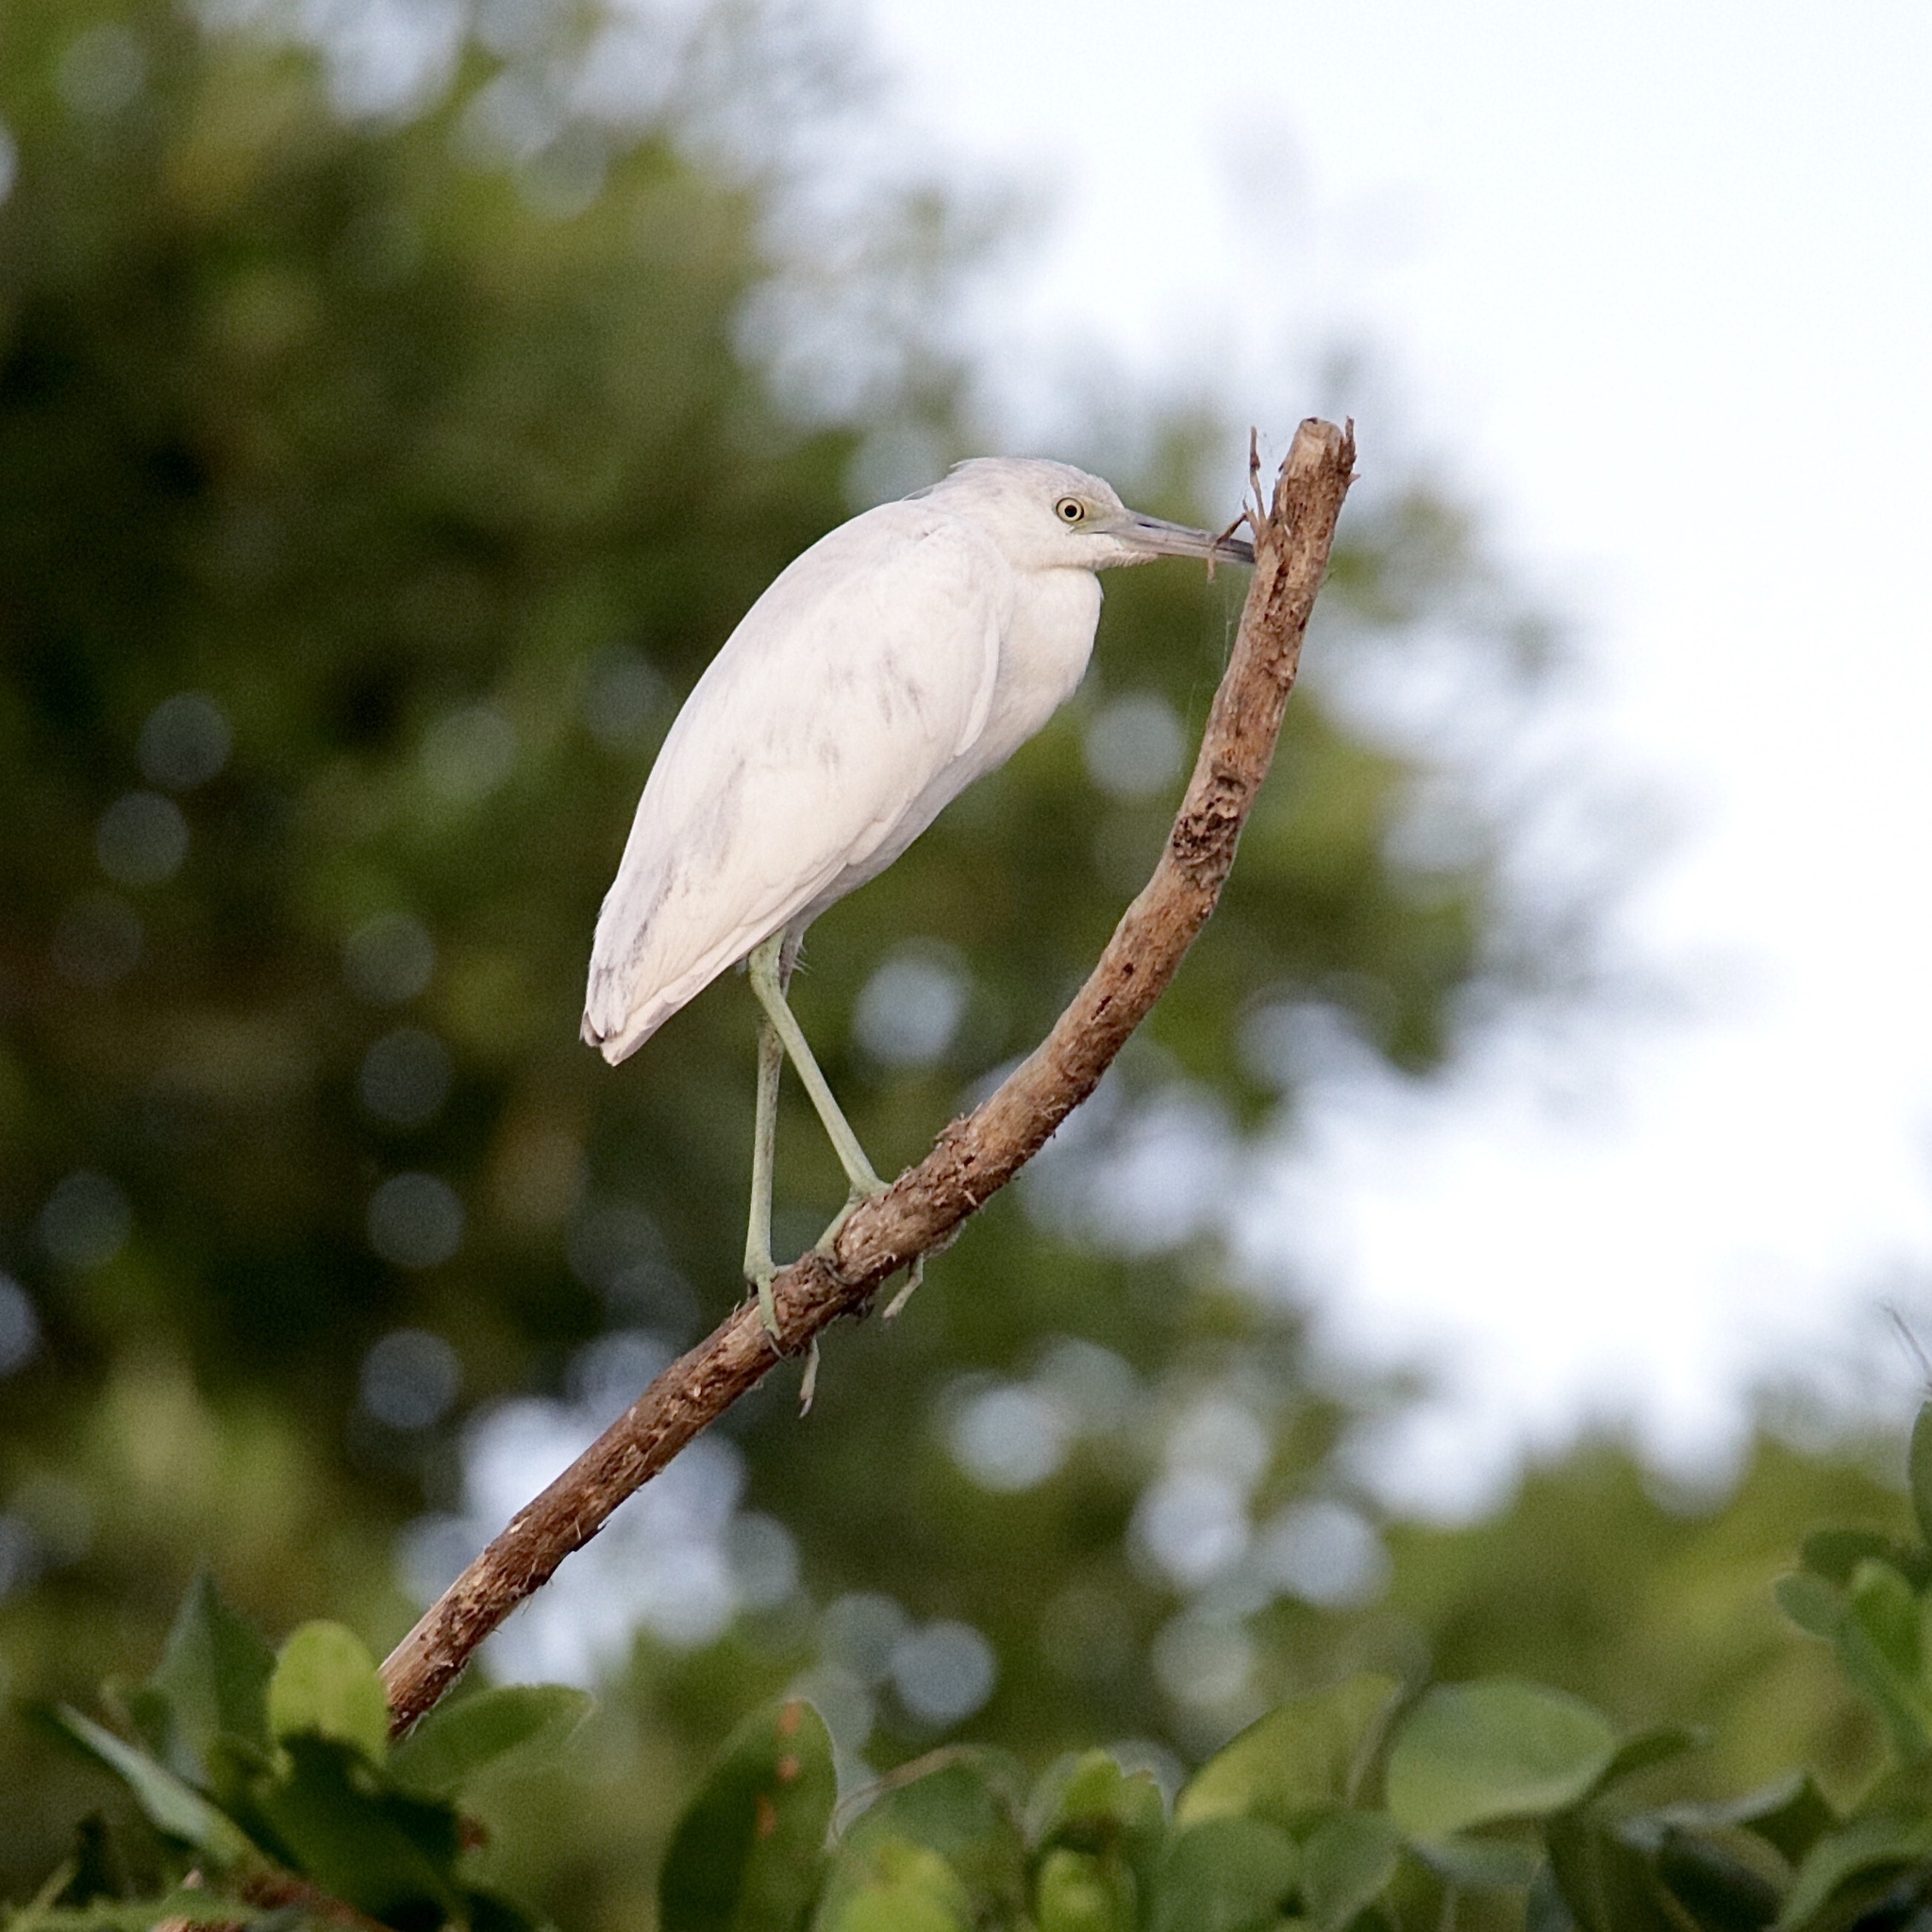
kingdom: Animalia
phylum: Chordata
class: Aves
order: Pelecaniformes
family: Ardeidae
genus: Egretta
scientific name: Egretta caerulea
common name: Little blue heron
